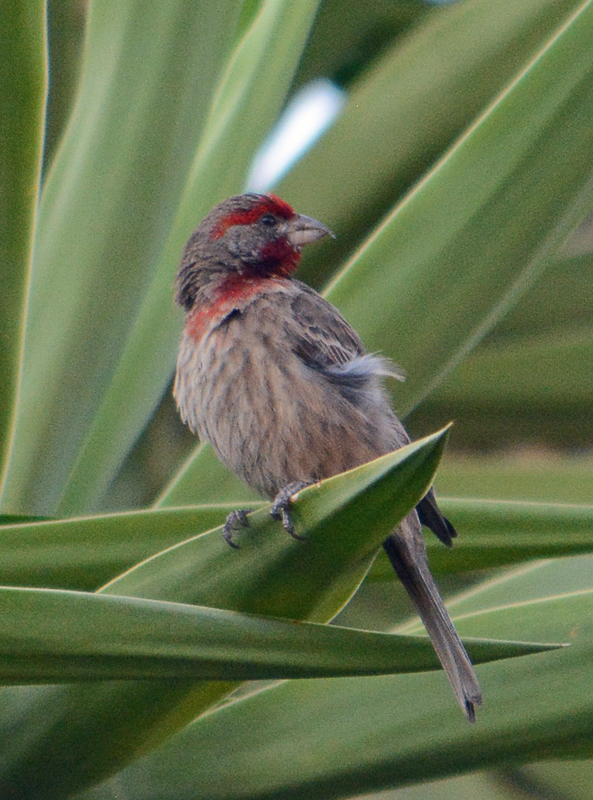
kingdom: Animalia
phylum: Chordata
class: Aves
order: Passeriformes
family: Fringillidae
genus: Haemorhous
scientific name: Haemorhous mexicanus
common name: House finch
